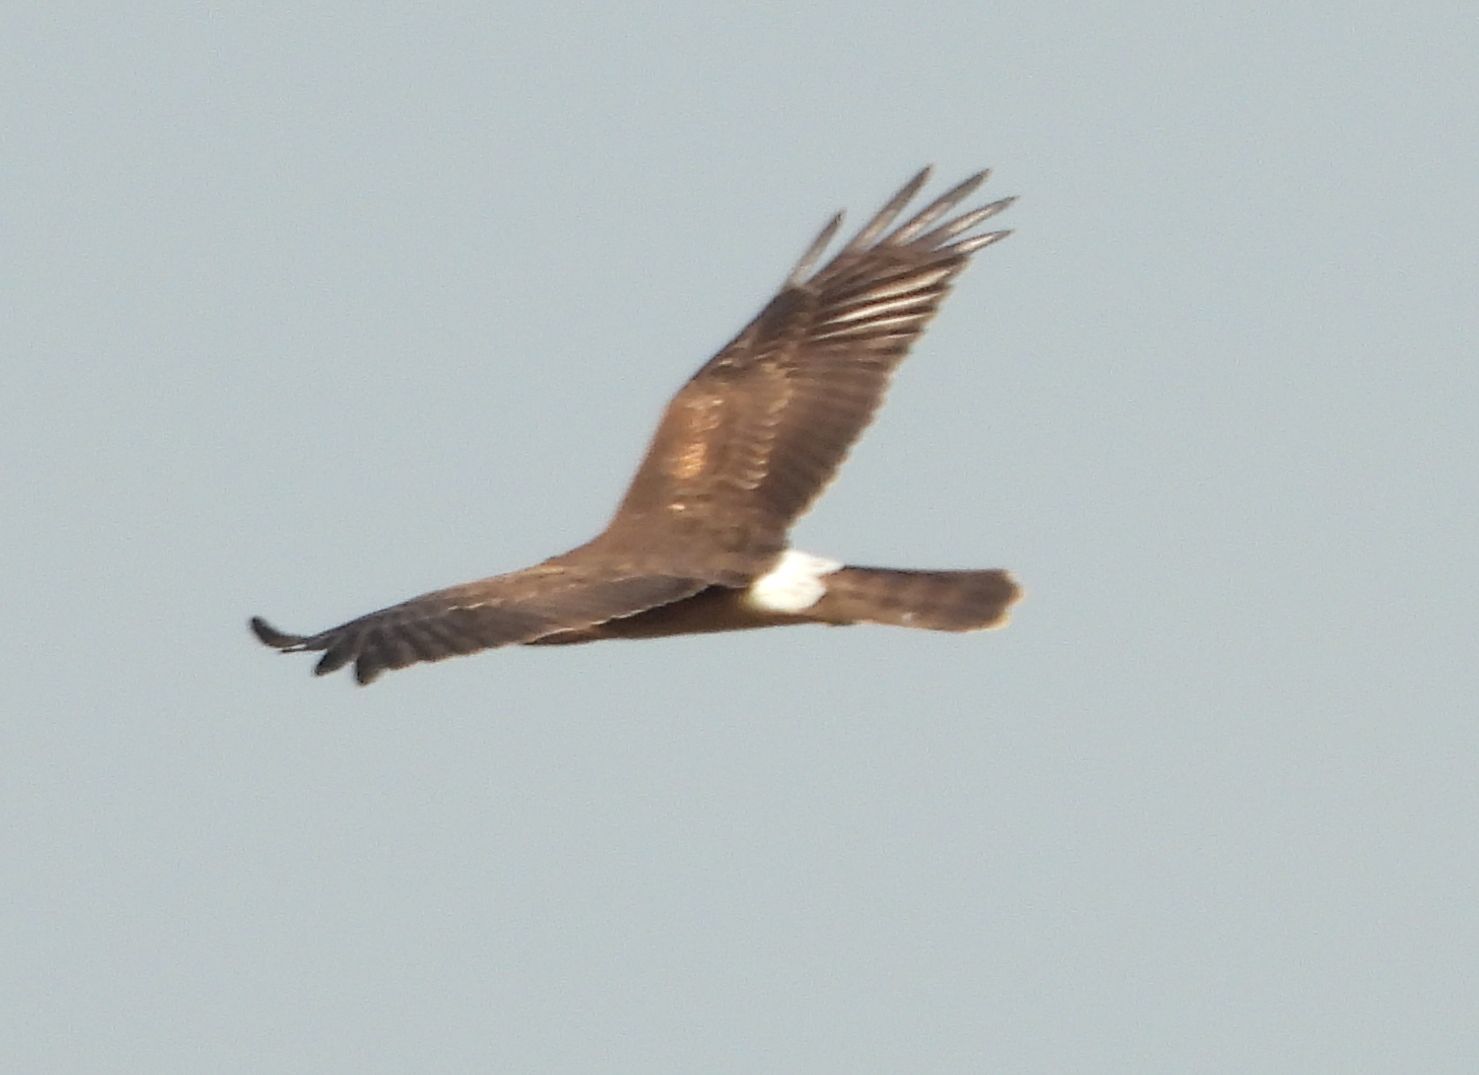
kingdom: Animalia
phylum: Chordata
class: Aves
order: Accipitriformes
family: Accipitridae
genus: Circus
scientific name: Circus cyaneus
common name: Hen harrier
